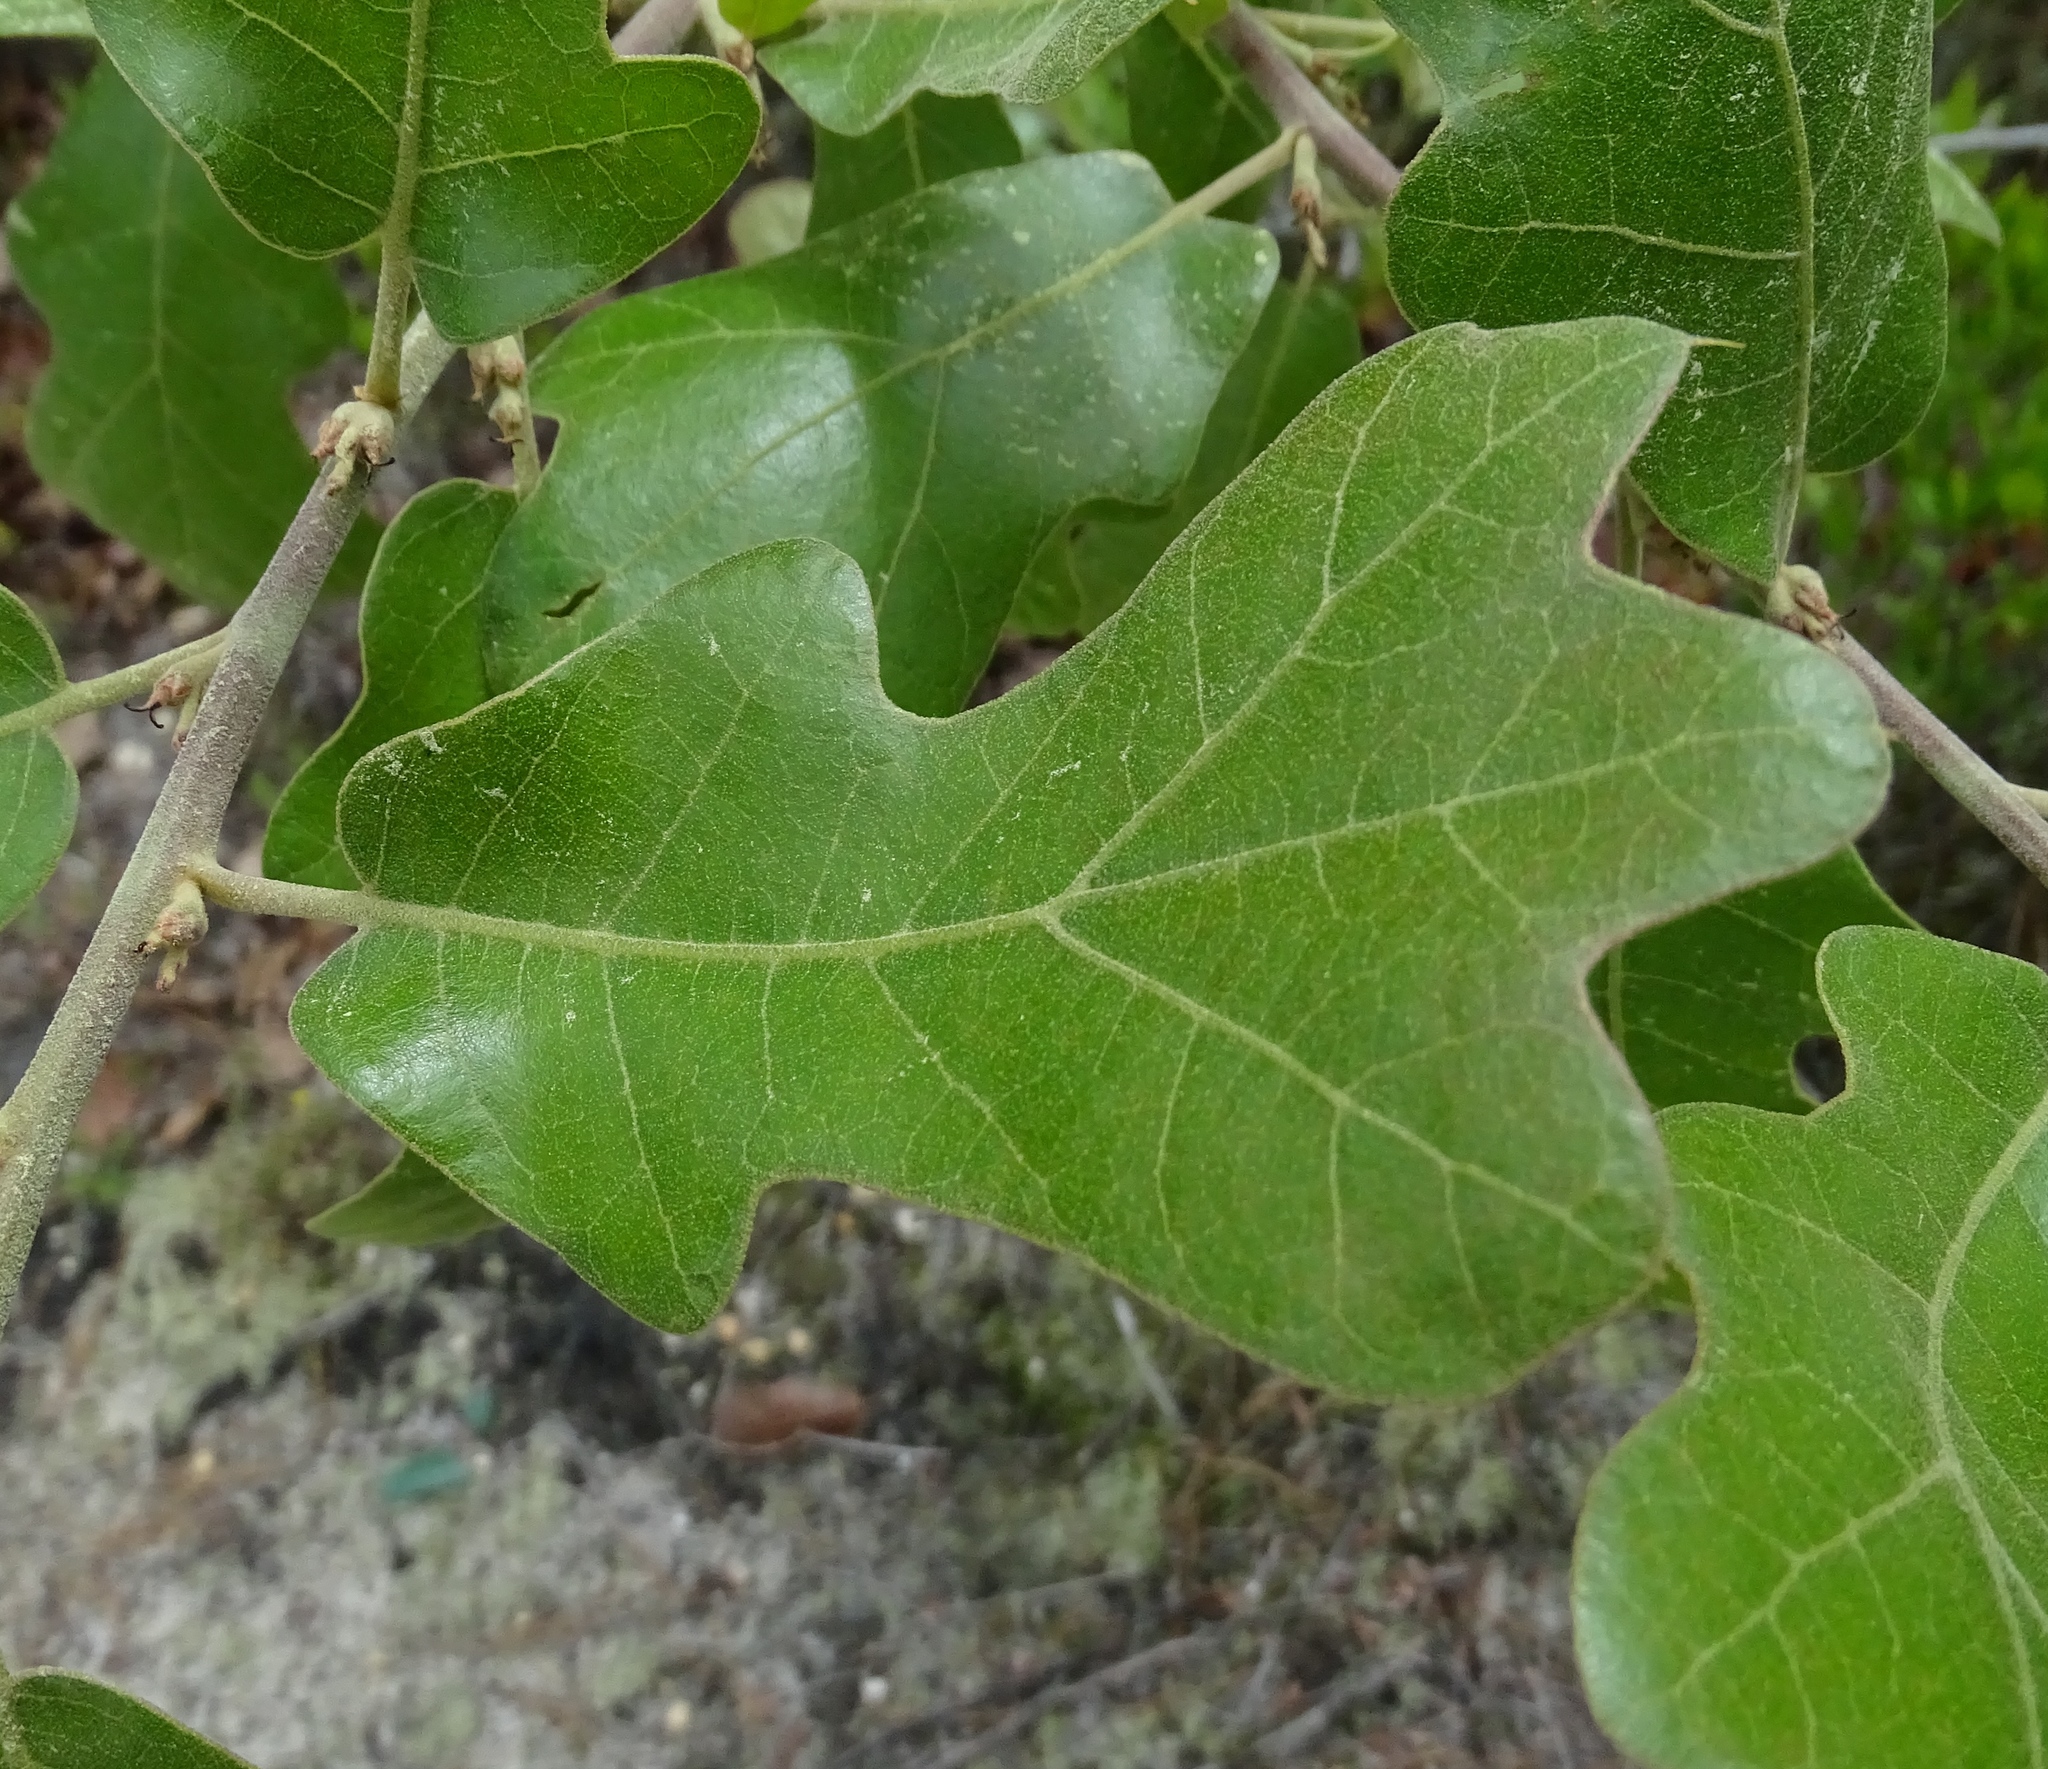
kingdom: Plantae
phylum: Tracheophyta
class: Magnoliopsida
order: Fagales
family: Fagaceae
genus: Quercus
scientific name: Quercus marilandica
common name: Blackjack oak
